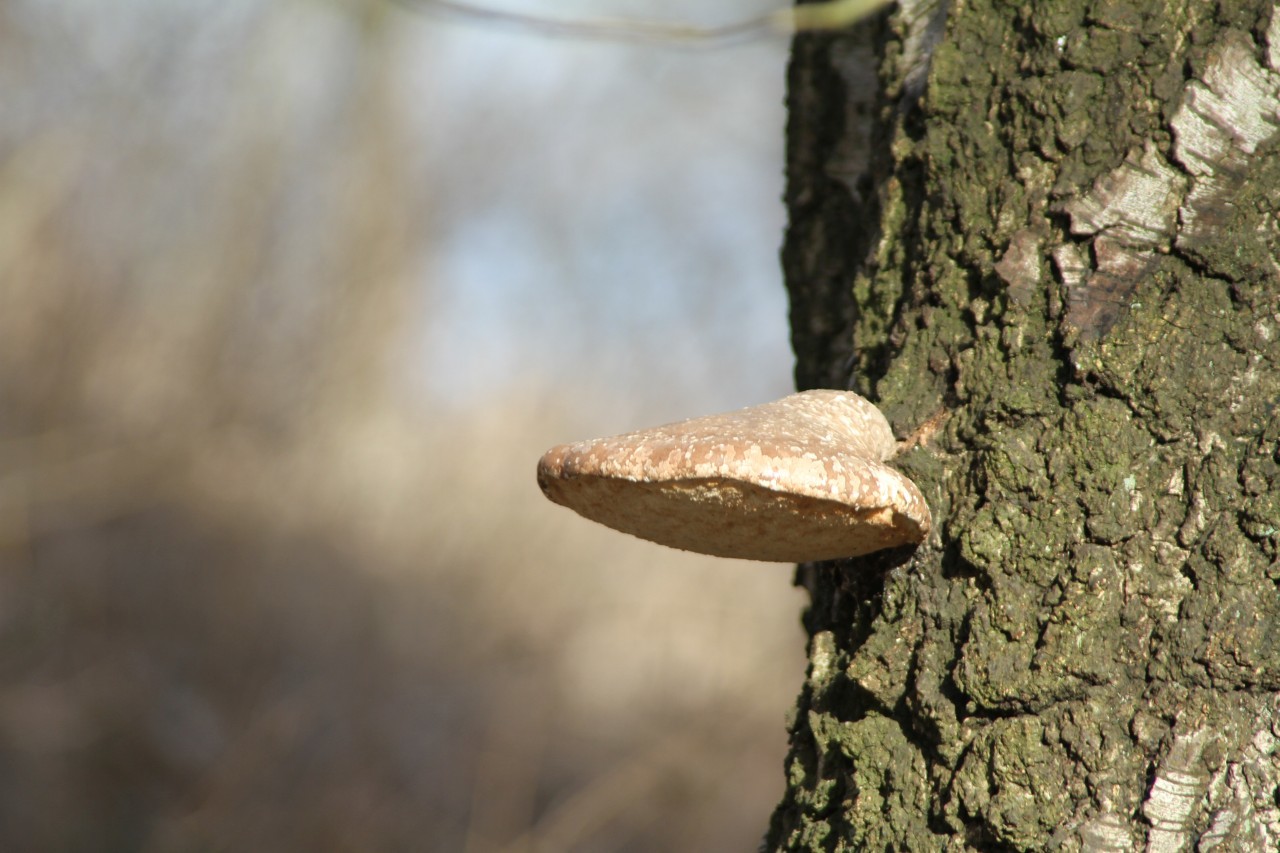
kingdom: Fungi
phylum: Basidiomycota
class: Agaricomycetes
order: Polyporales
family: Fomitopsidaceae
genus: Fomitopsis
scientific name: Fomitopsis betulina
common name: Birch polypore
